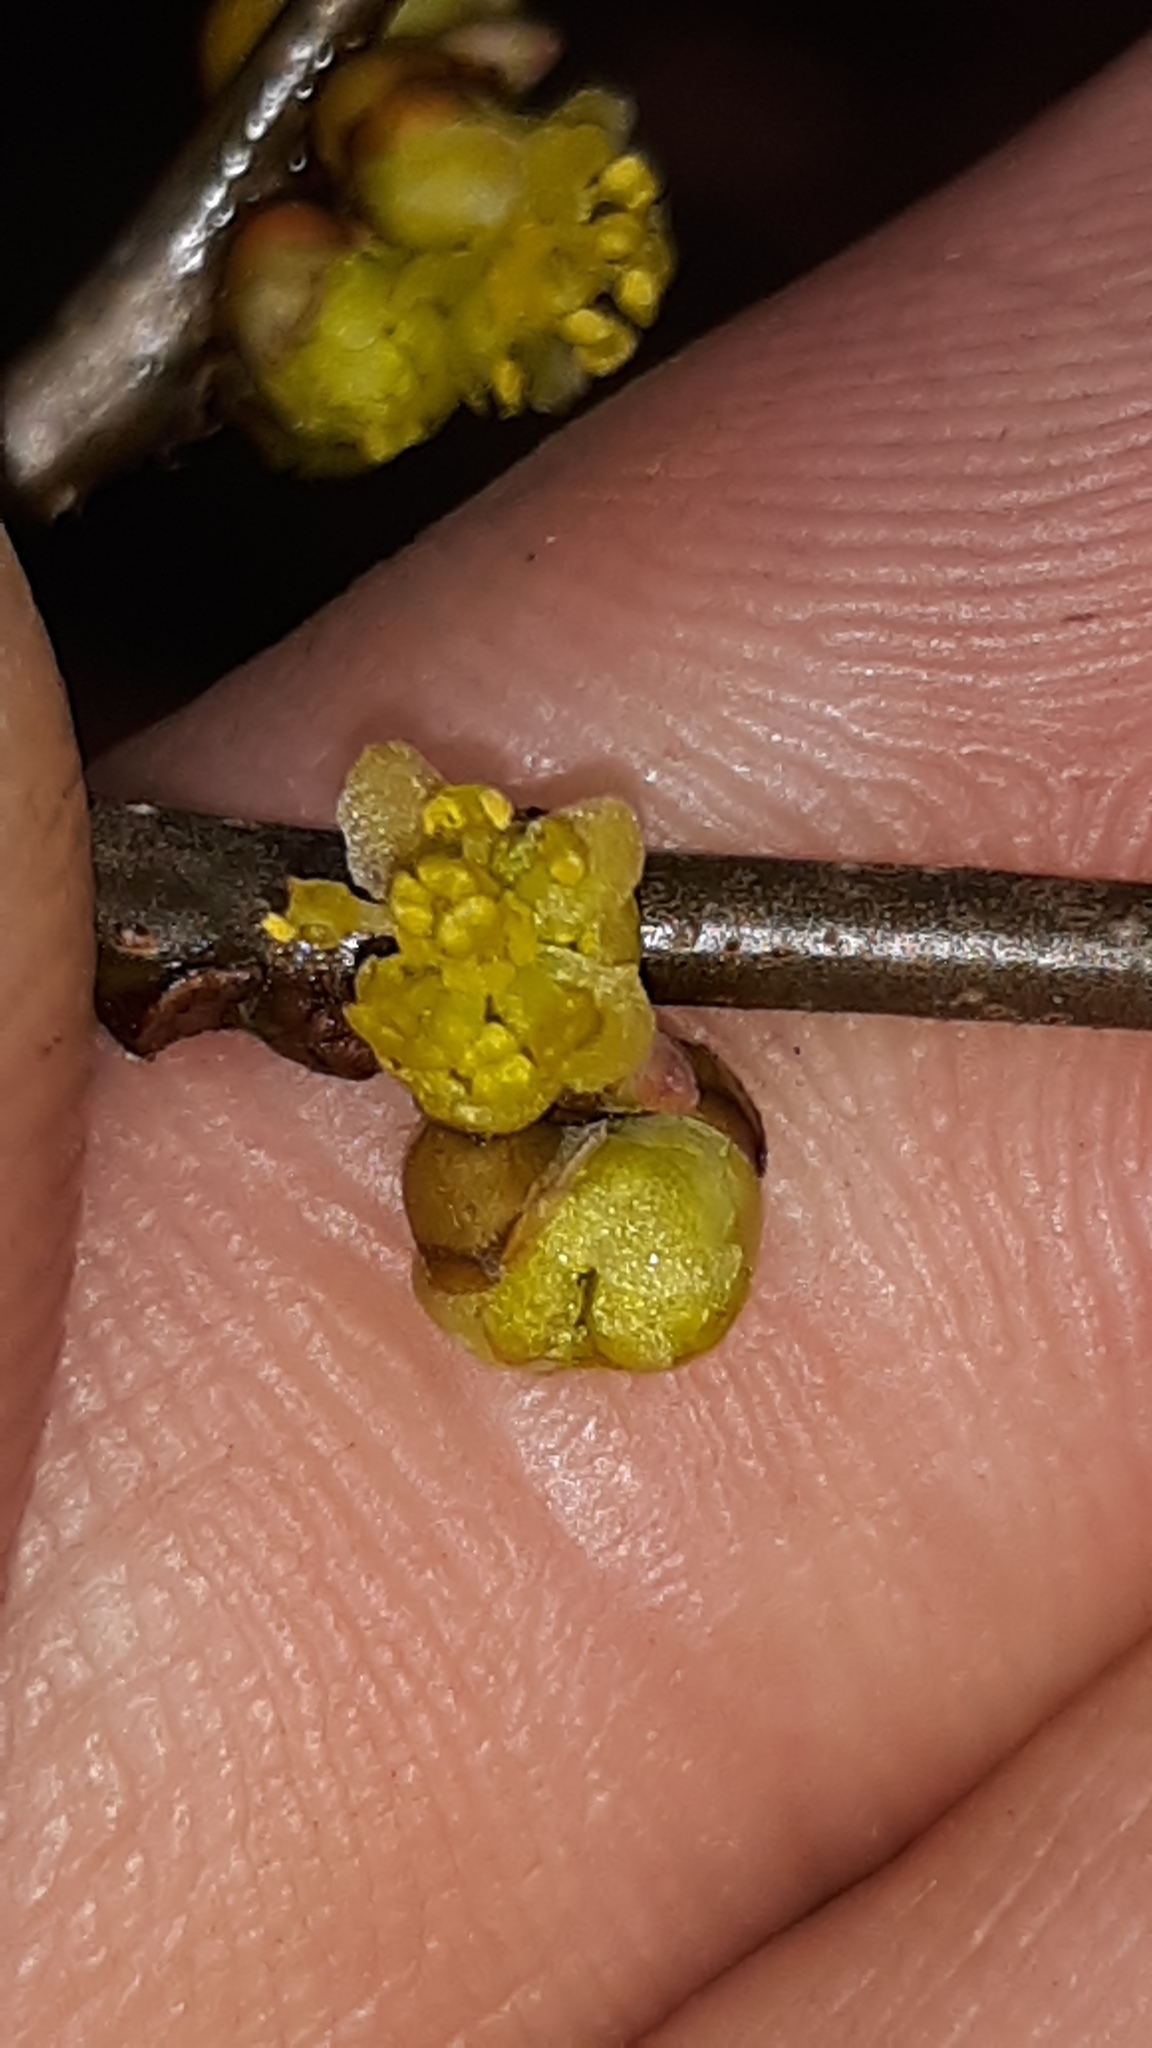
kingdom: Plantae
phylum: Tracheophyta
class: Magnoliopsida
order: Laurales
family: Lauraceae
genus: Lindera
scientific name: Lindera benzoin
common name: Spicebush
